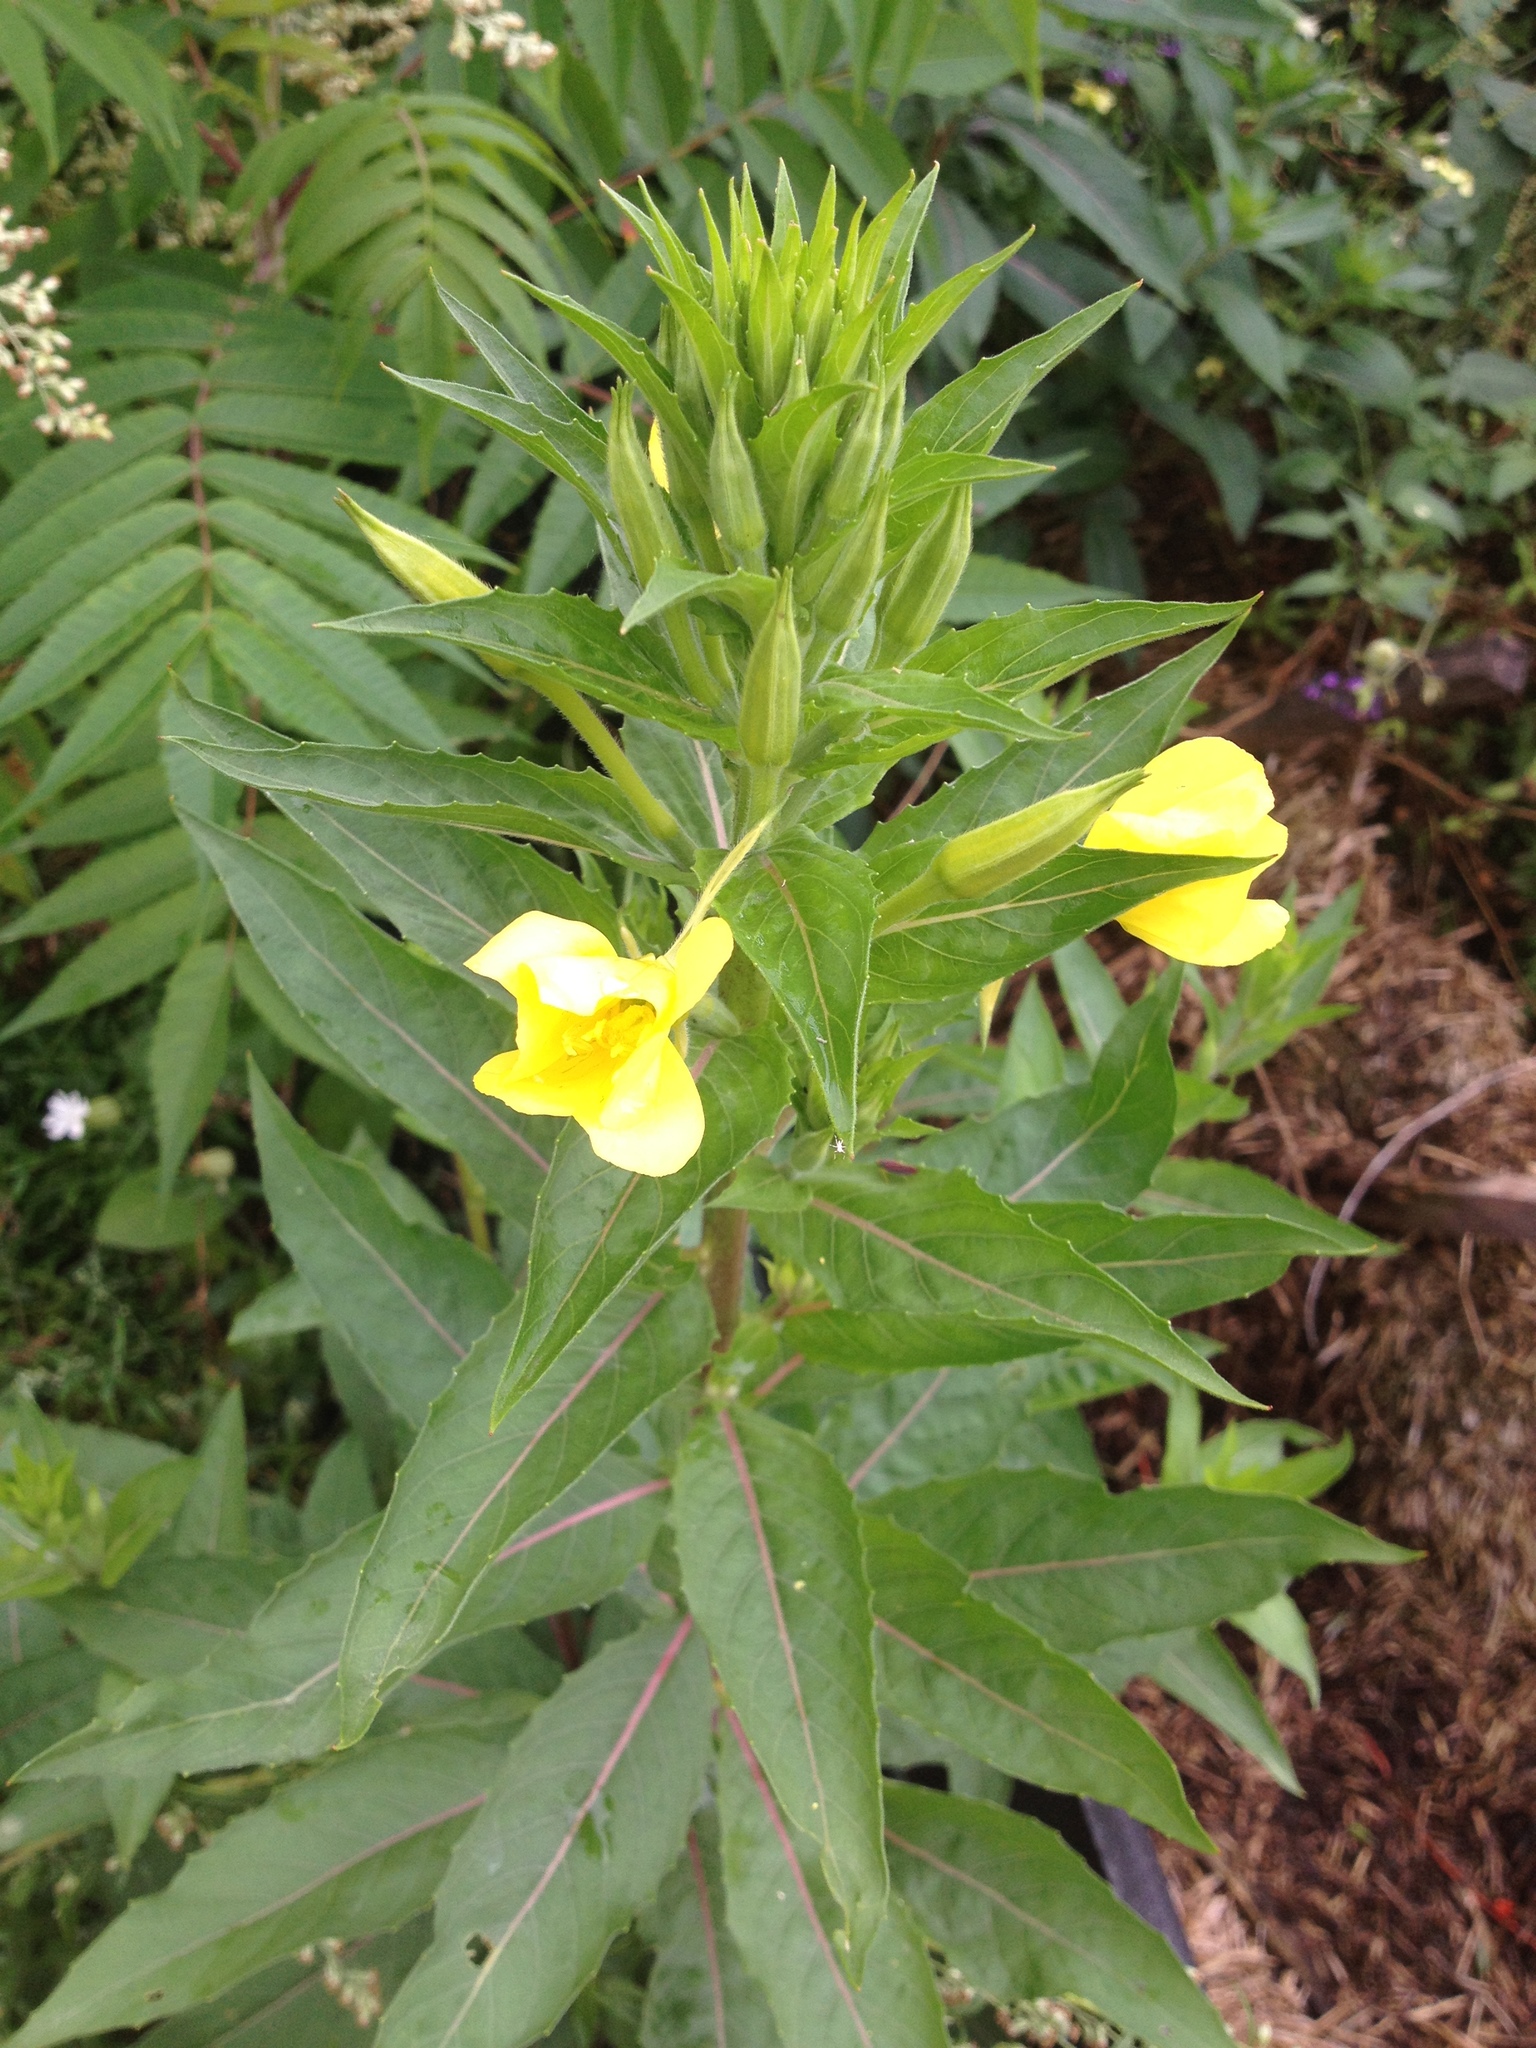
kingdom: Plantae
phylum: Tracheophyta
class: Magnoliopsida
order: Myrtales
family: Onagraceae
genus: Oenothera
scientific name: Oenothera biennis
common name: Common evening-primrose
